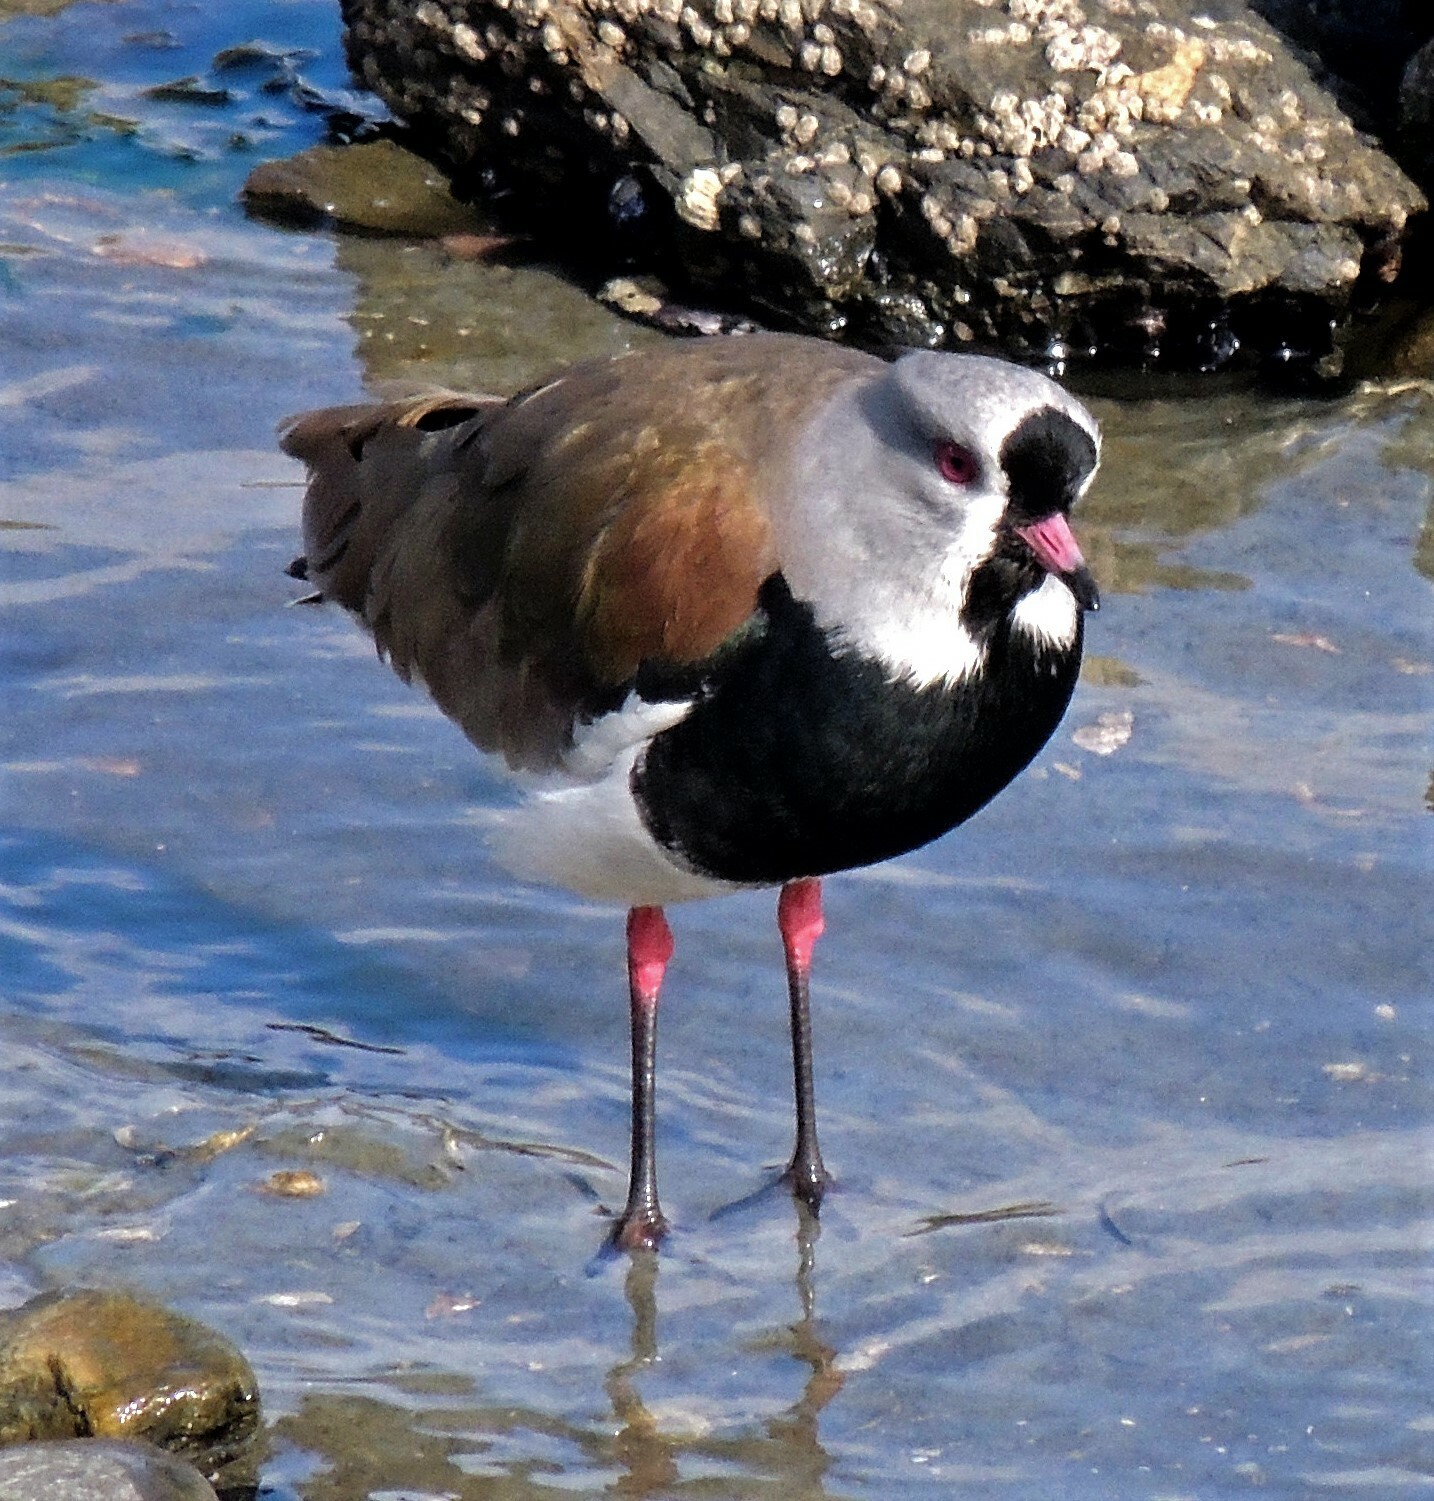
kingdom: Animalia
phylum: Chordata
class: Aves
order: Charadriiformes
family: Charadriidae
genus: Vanellus
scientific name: Vanellus chilensis
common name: Southern lapwing
